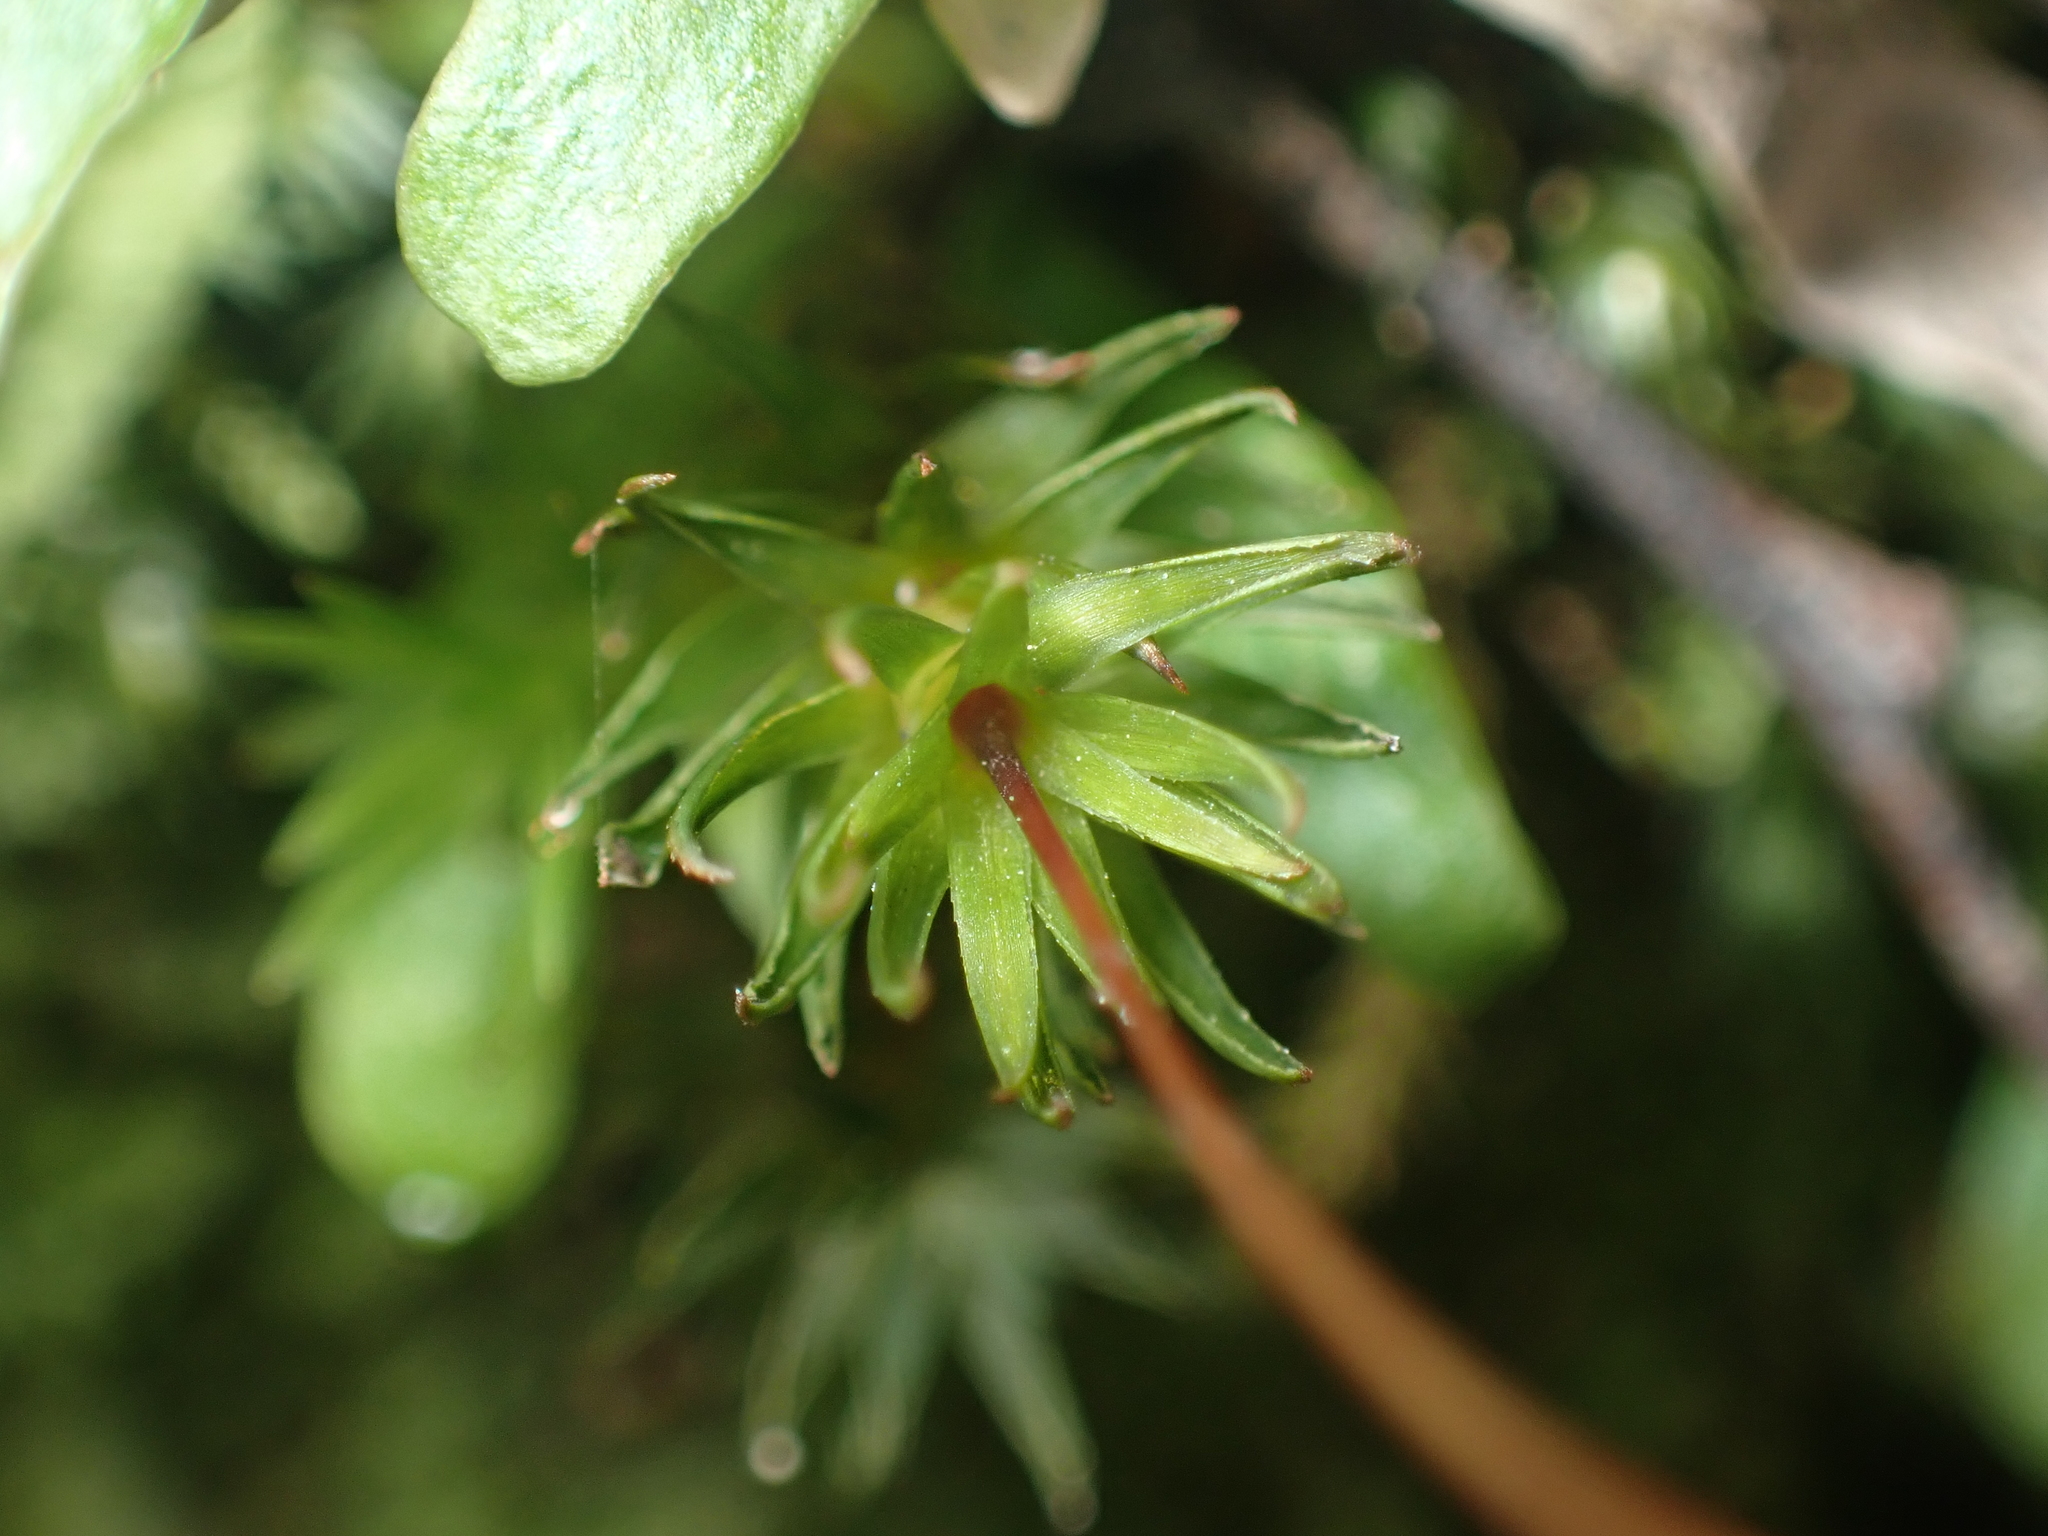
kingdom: Plantae
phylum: Bryophyta
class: Polytrichopsida
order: Polytrichales
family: Polytrichaceae
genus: Pogonatum
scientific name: Pogonatum subulatum
